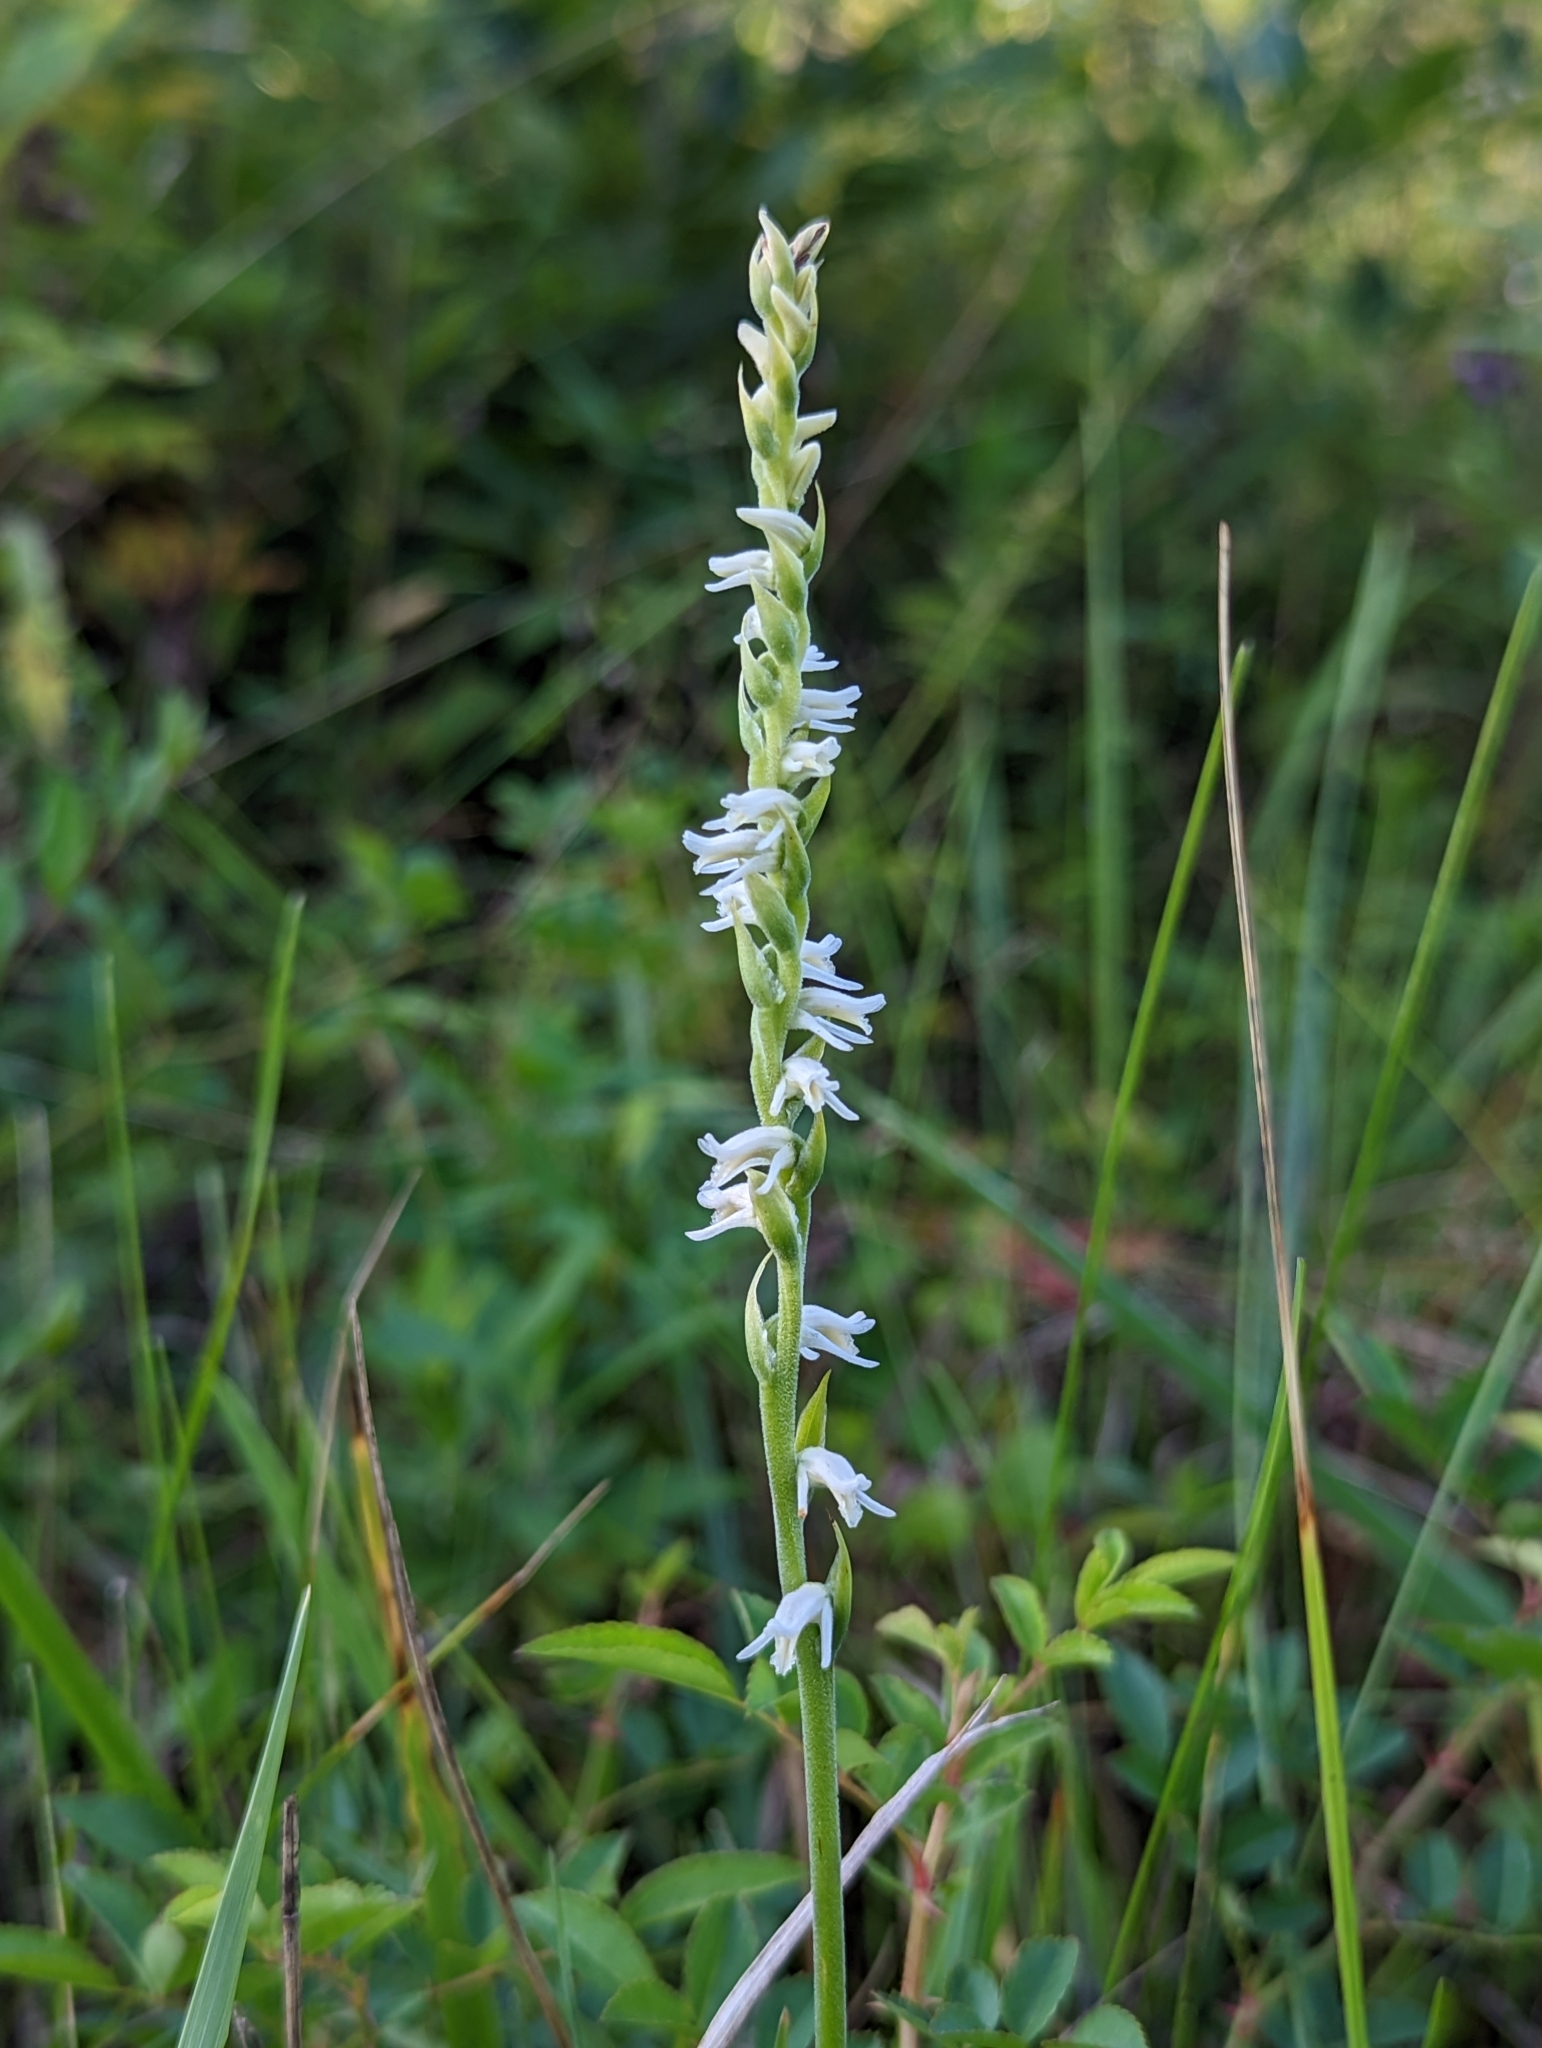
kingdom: Plantae
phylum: Tracheophyta
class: Liliopsida
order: Asparagales
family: Orchidaceae
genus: Spiranthes
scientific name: Spiranthes vernalis
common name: Spring ladies'-tresses
